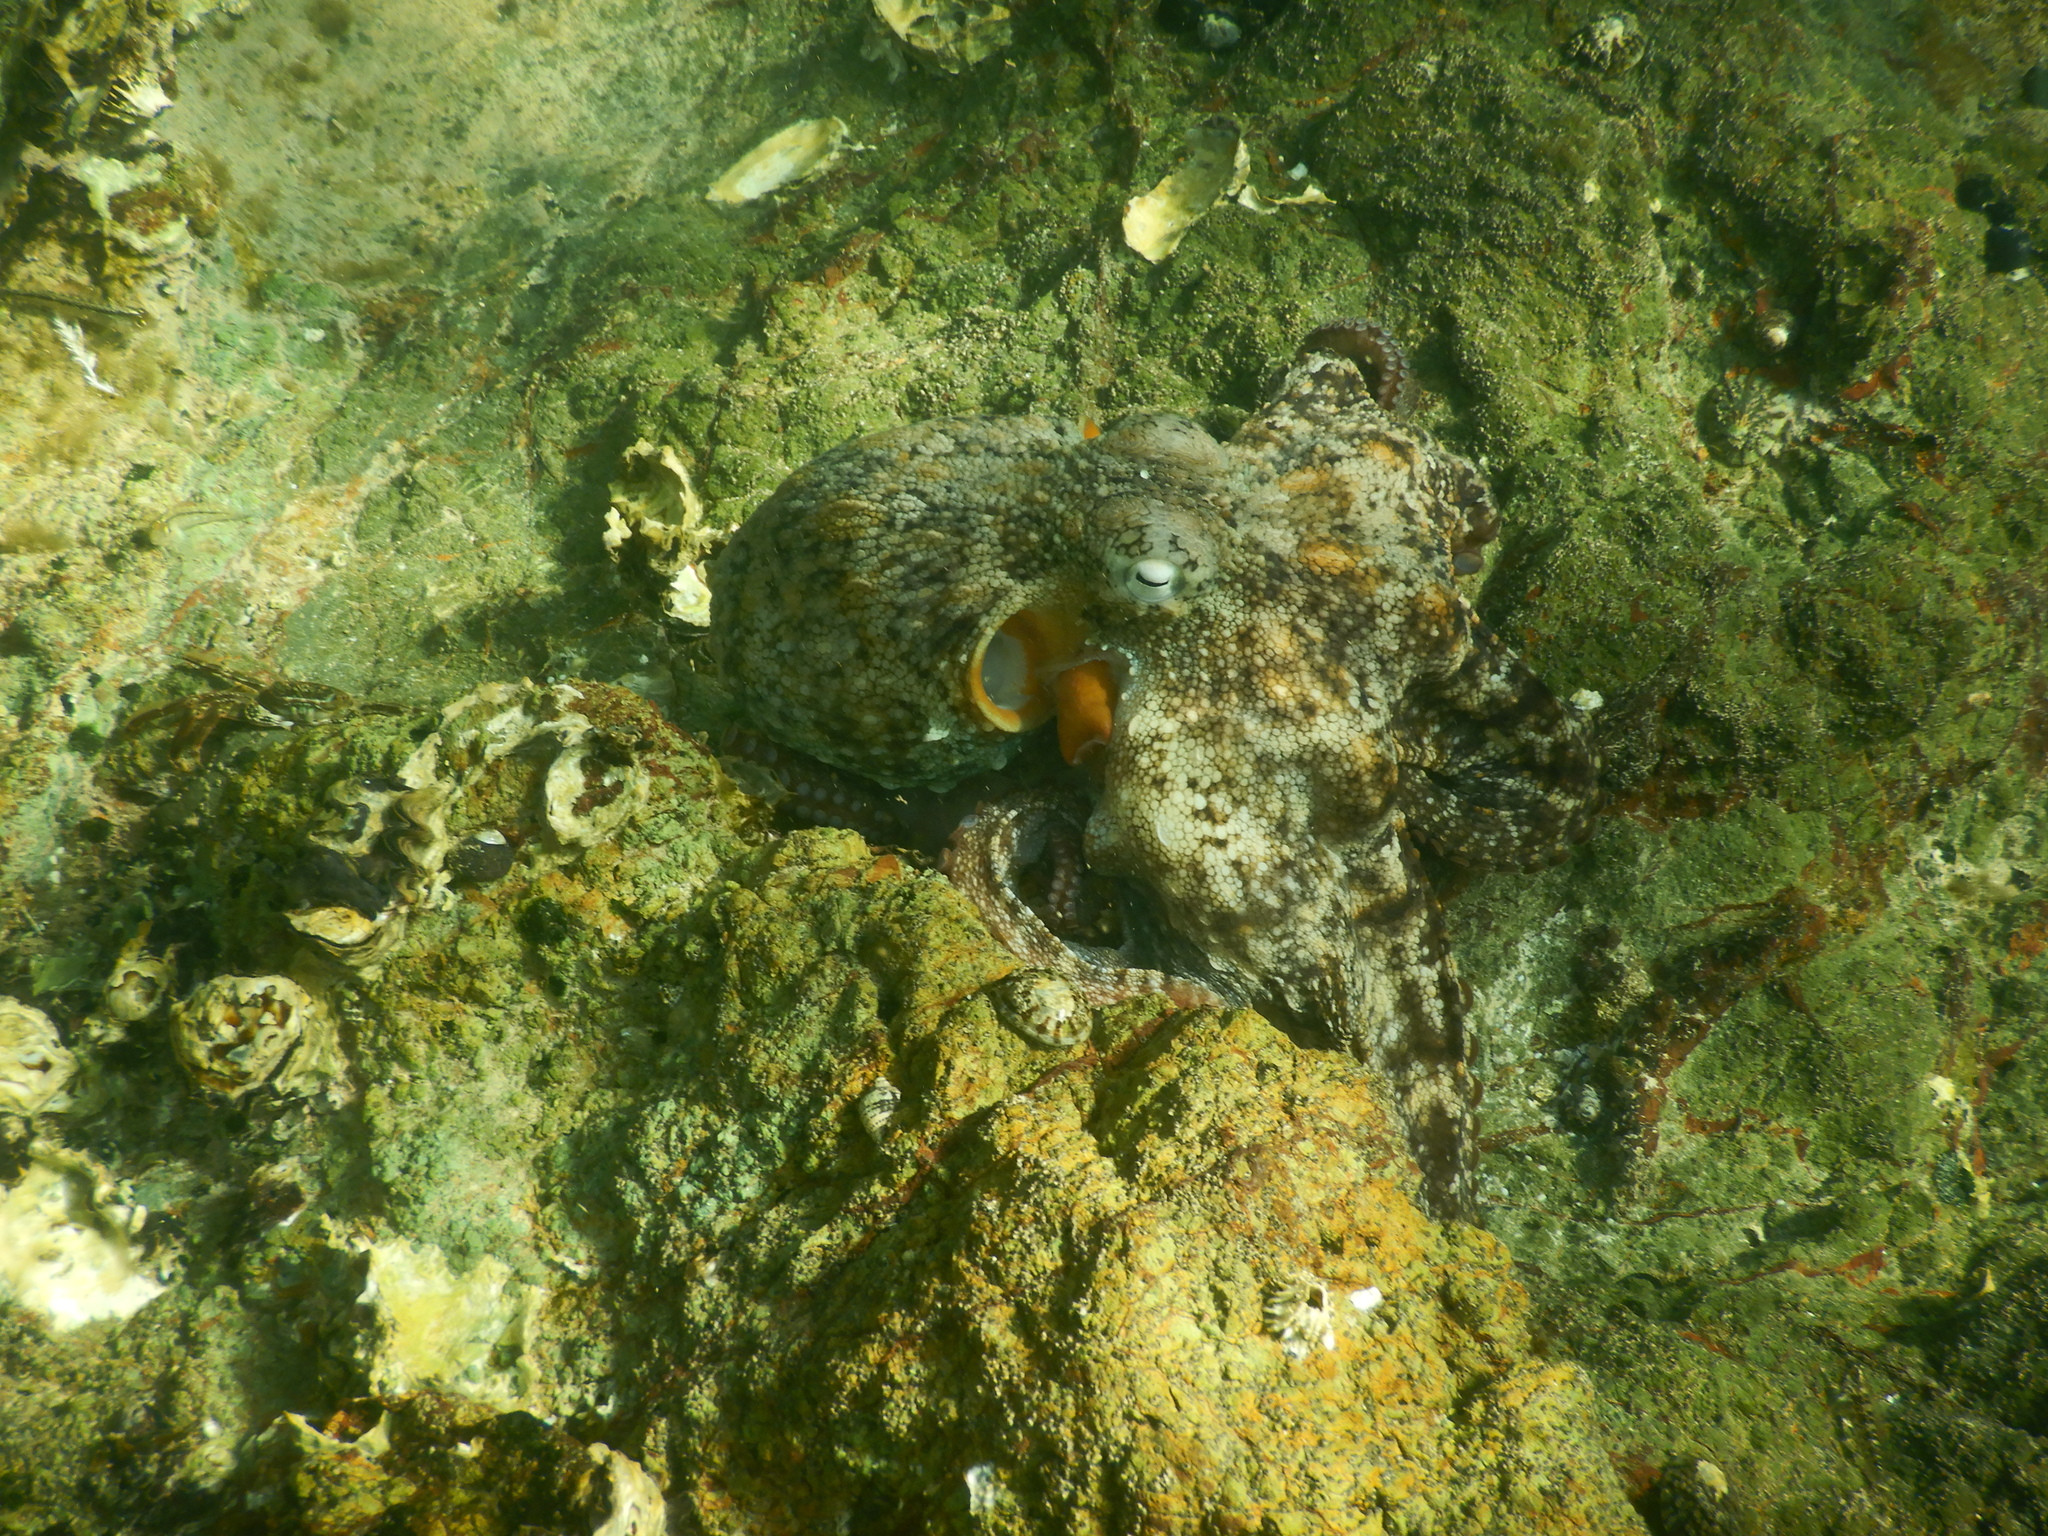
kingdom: Animalia
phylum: Mollusca
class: Cephalopoda
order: Octopoda
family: Octopodidae
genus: Octopus
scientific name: Octopus tetricus
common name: Sydney octopus
